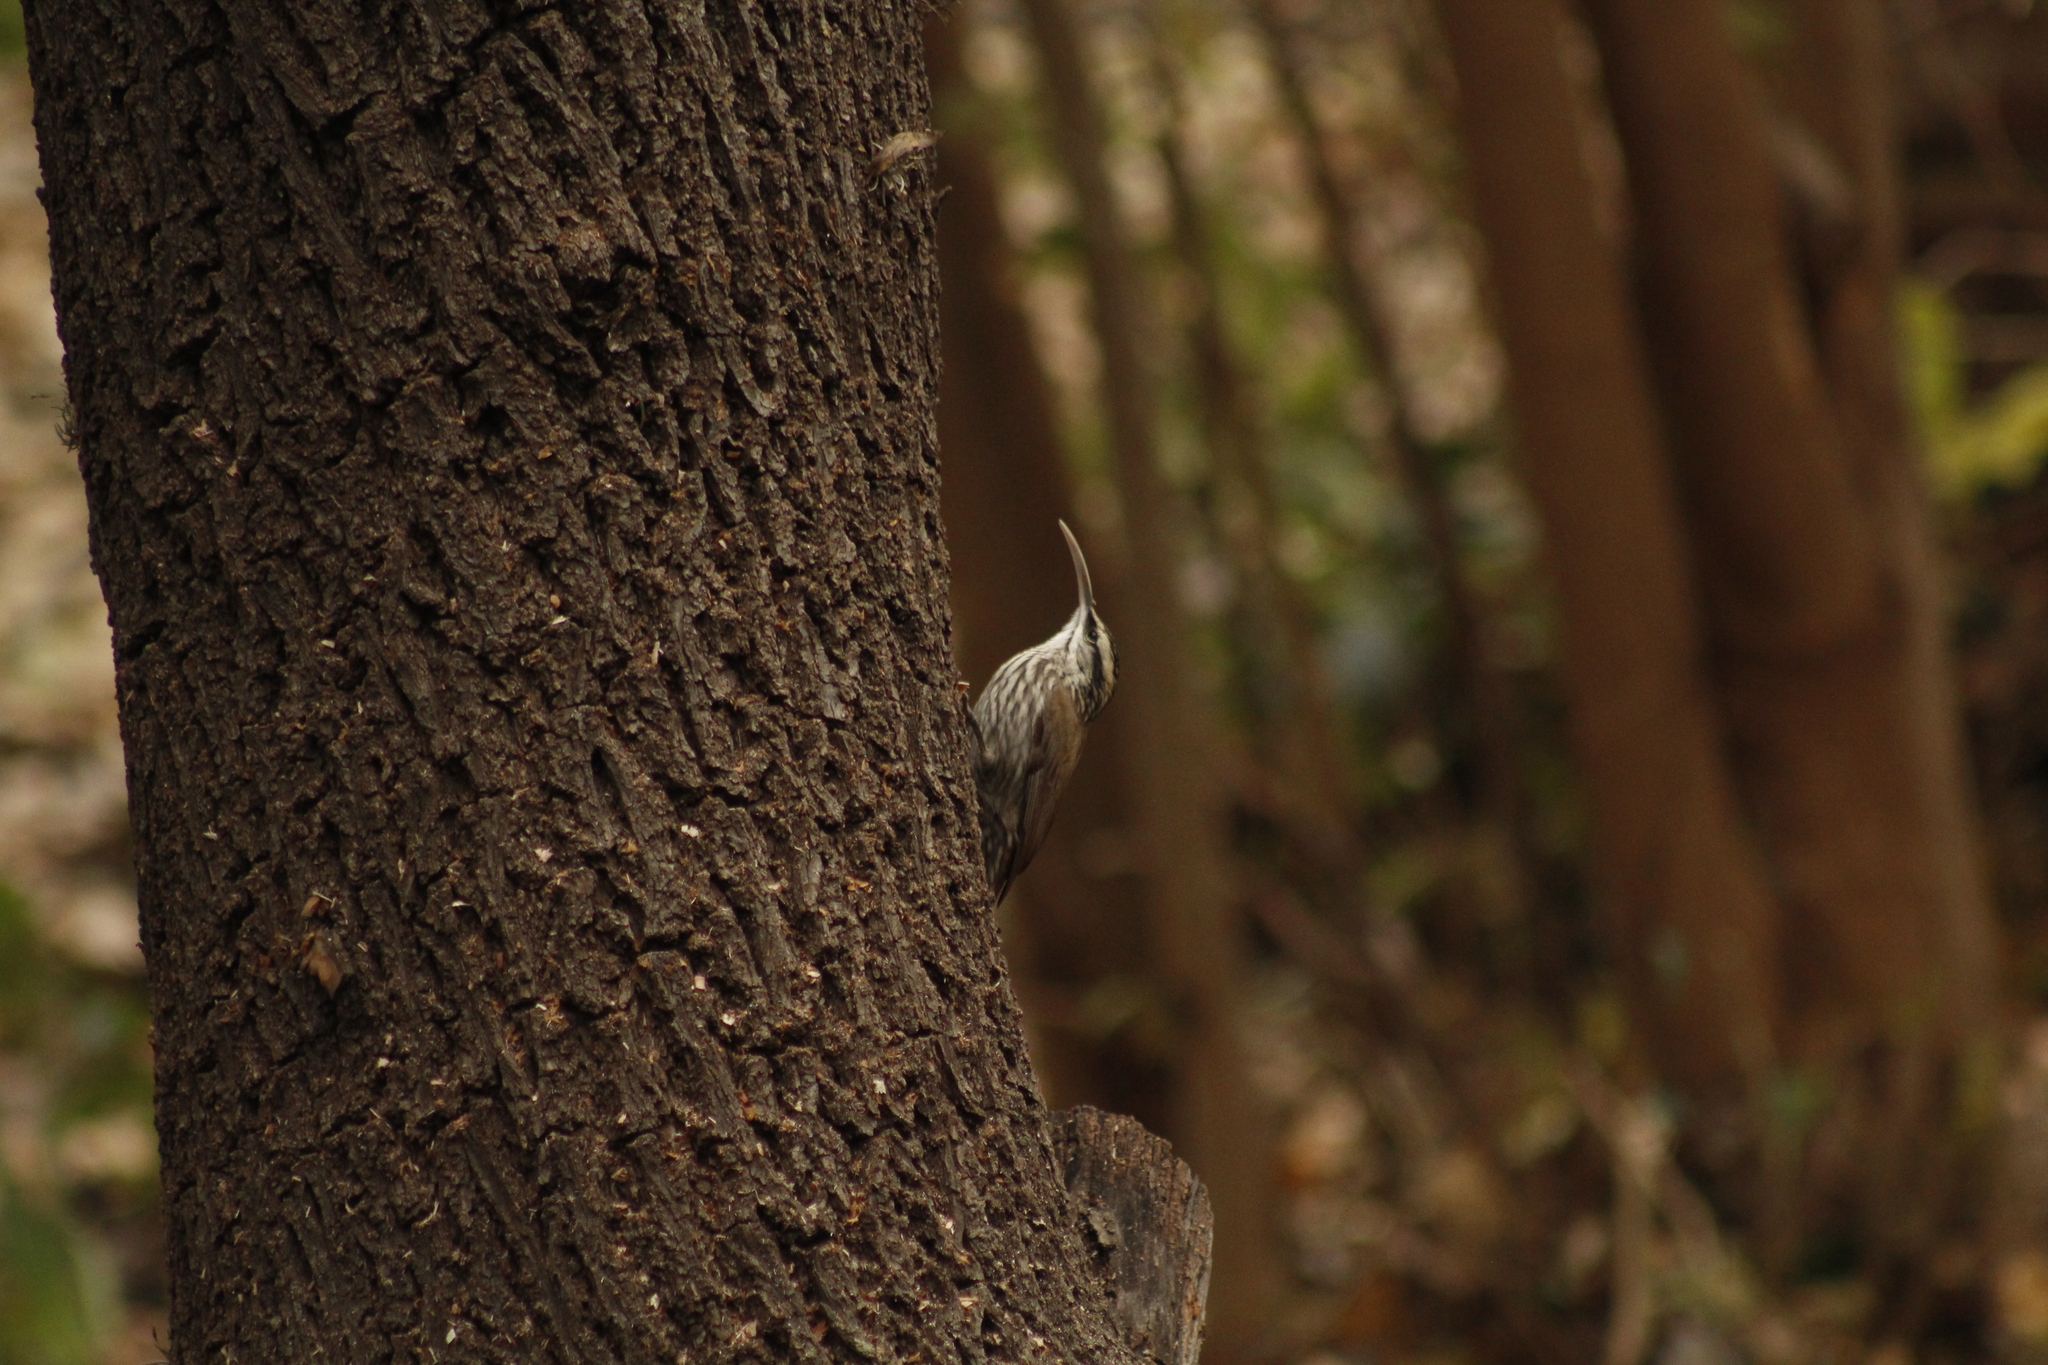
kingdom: Animalia
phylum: Chordata
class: Aves
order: Passeriformes
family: Furnariidae
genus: Lepidocolaptes
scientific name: Lepidocolaptes angustirostris
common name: Narrow-billed woodcreeper
